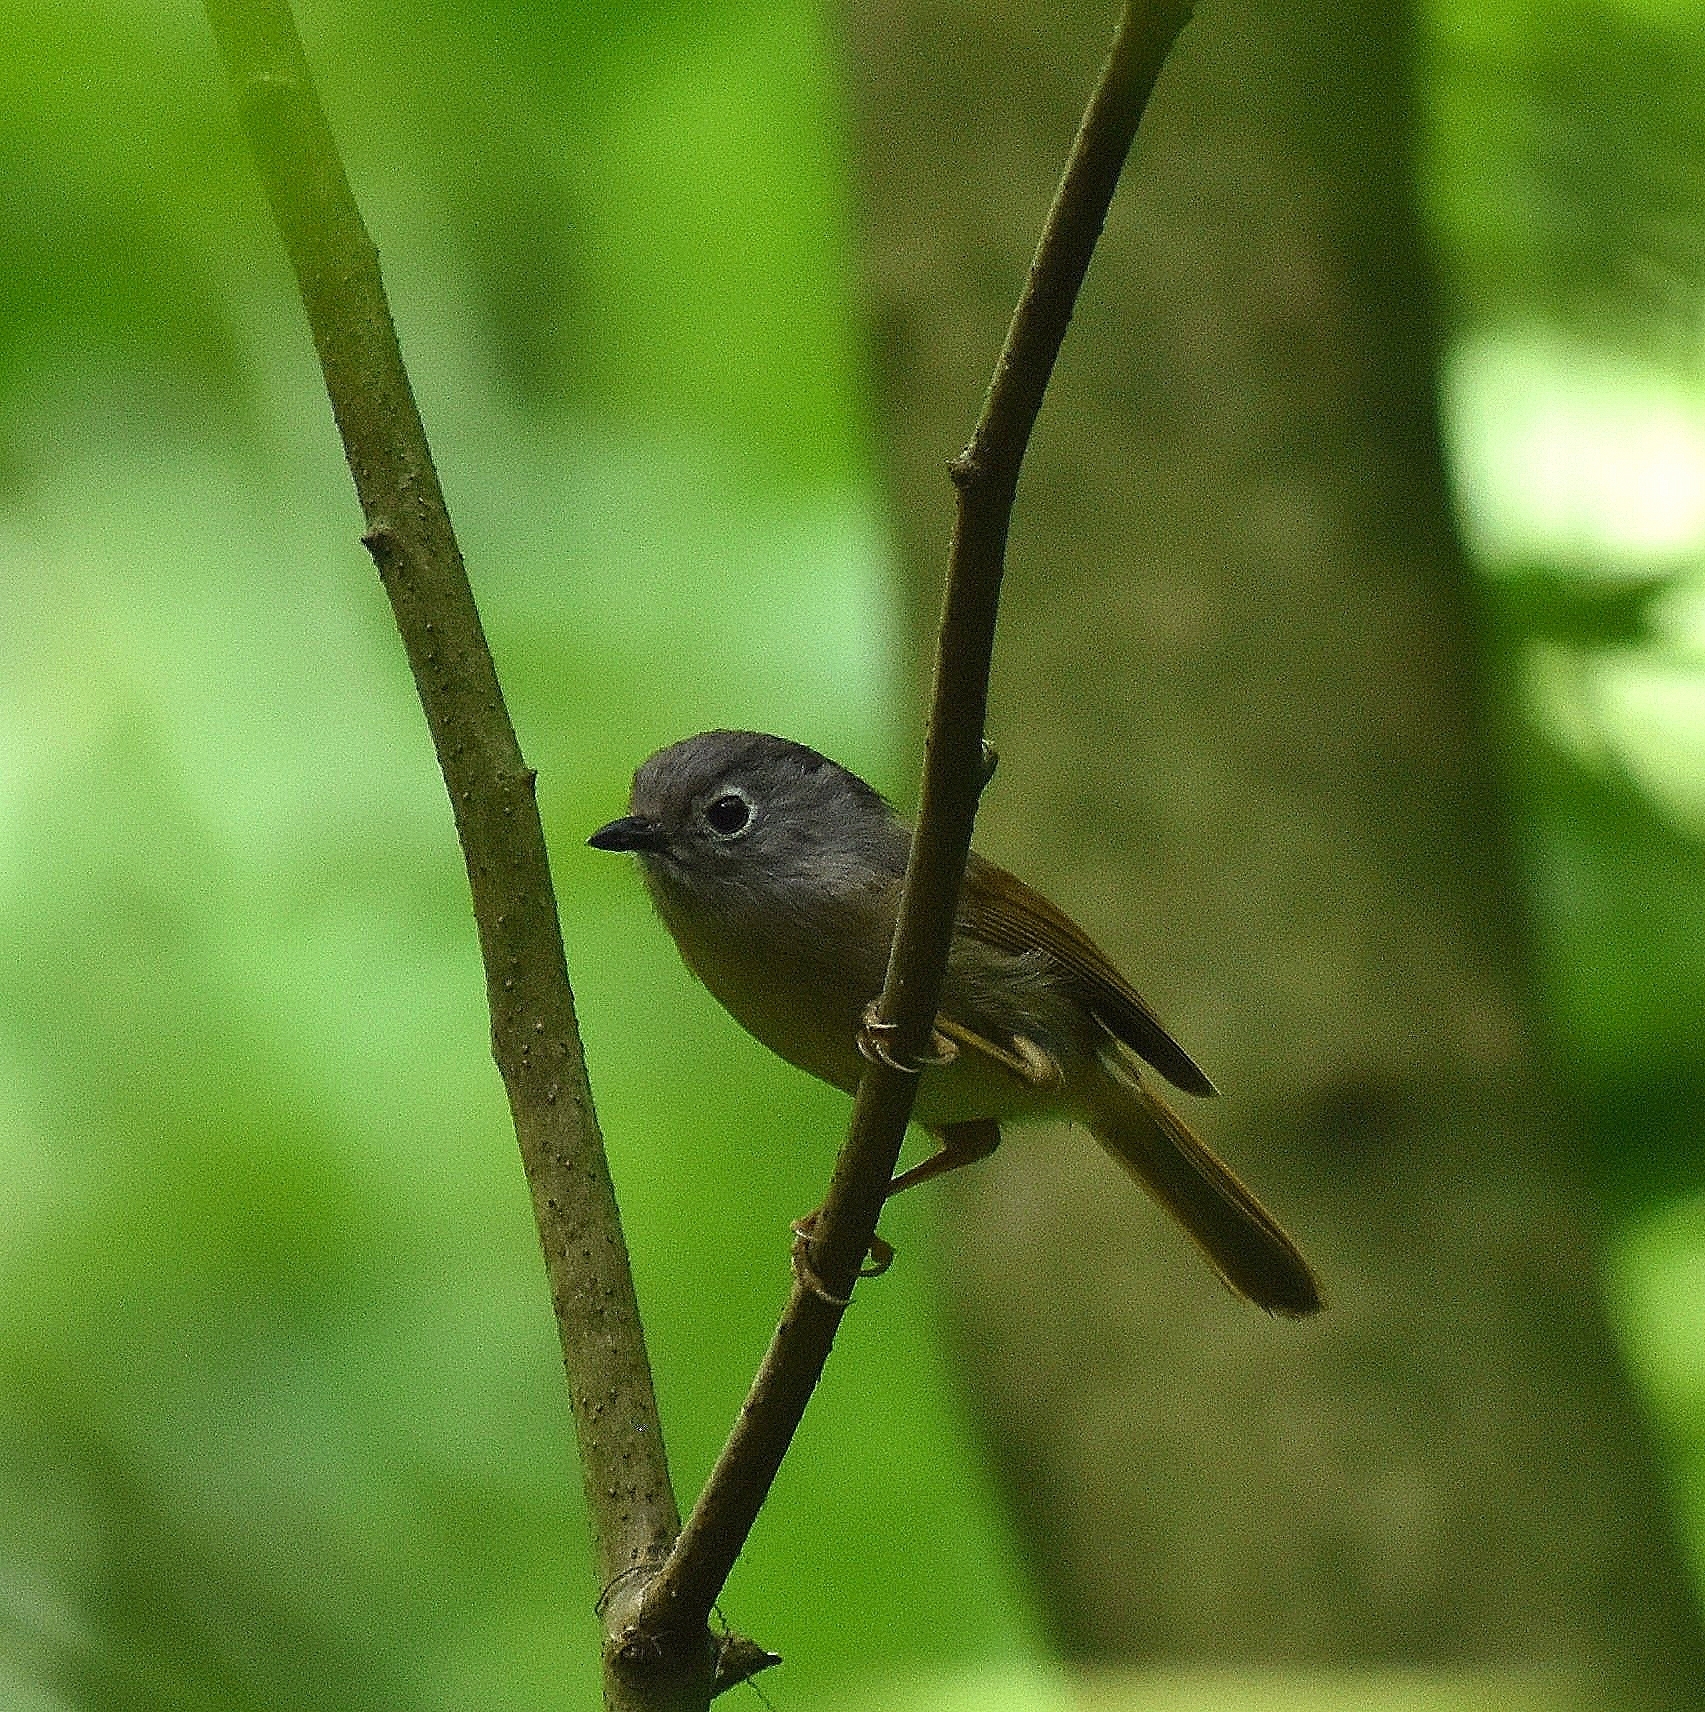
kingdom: Animalia
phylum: Chordata
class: Aves
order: Passeriformes
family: Pellorneidae
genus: Alcippe
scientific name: Alcippe hueti
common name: Huet's fulvetta
